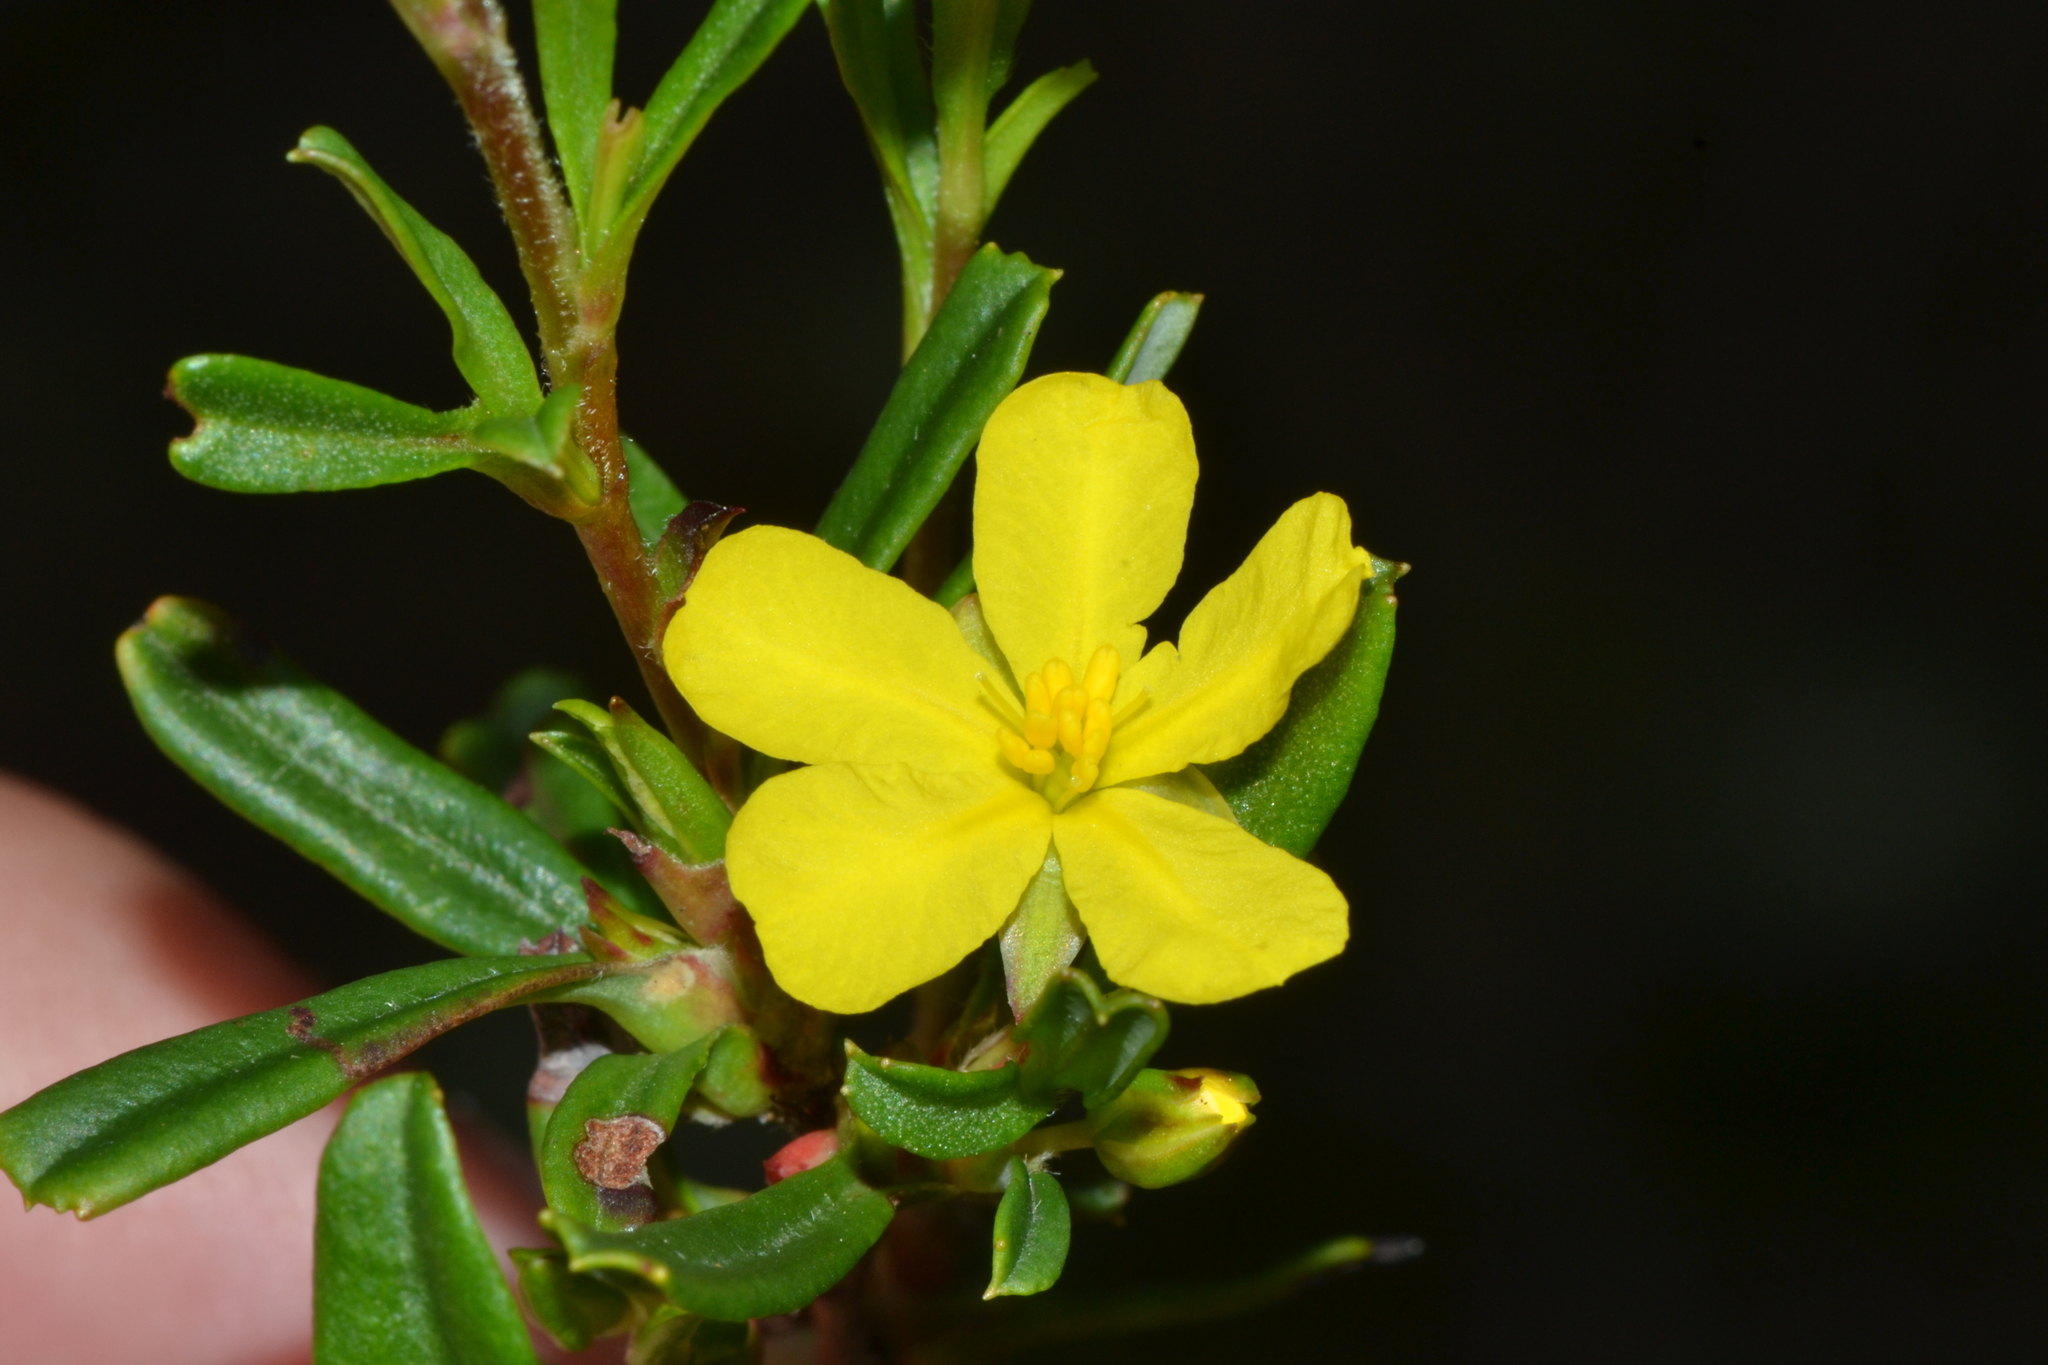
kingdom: Plantae
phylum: Tracheophyta
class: Magnoliopsida
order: Dilleniales
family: Dilleniaceae
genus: Hibbertia
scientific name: Hibbertia racemosa
